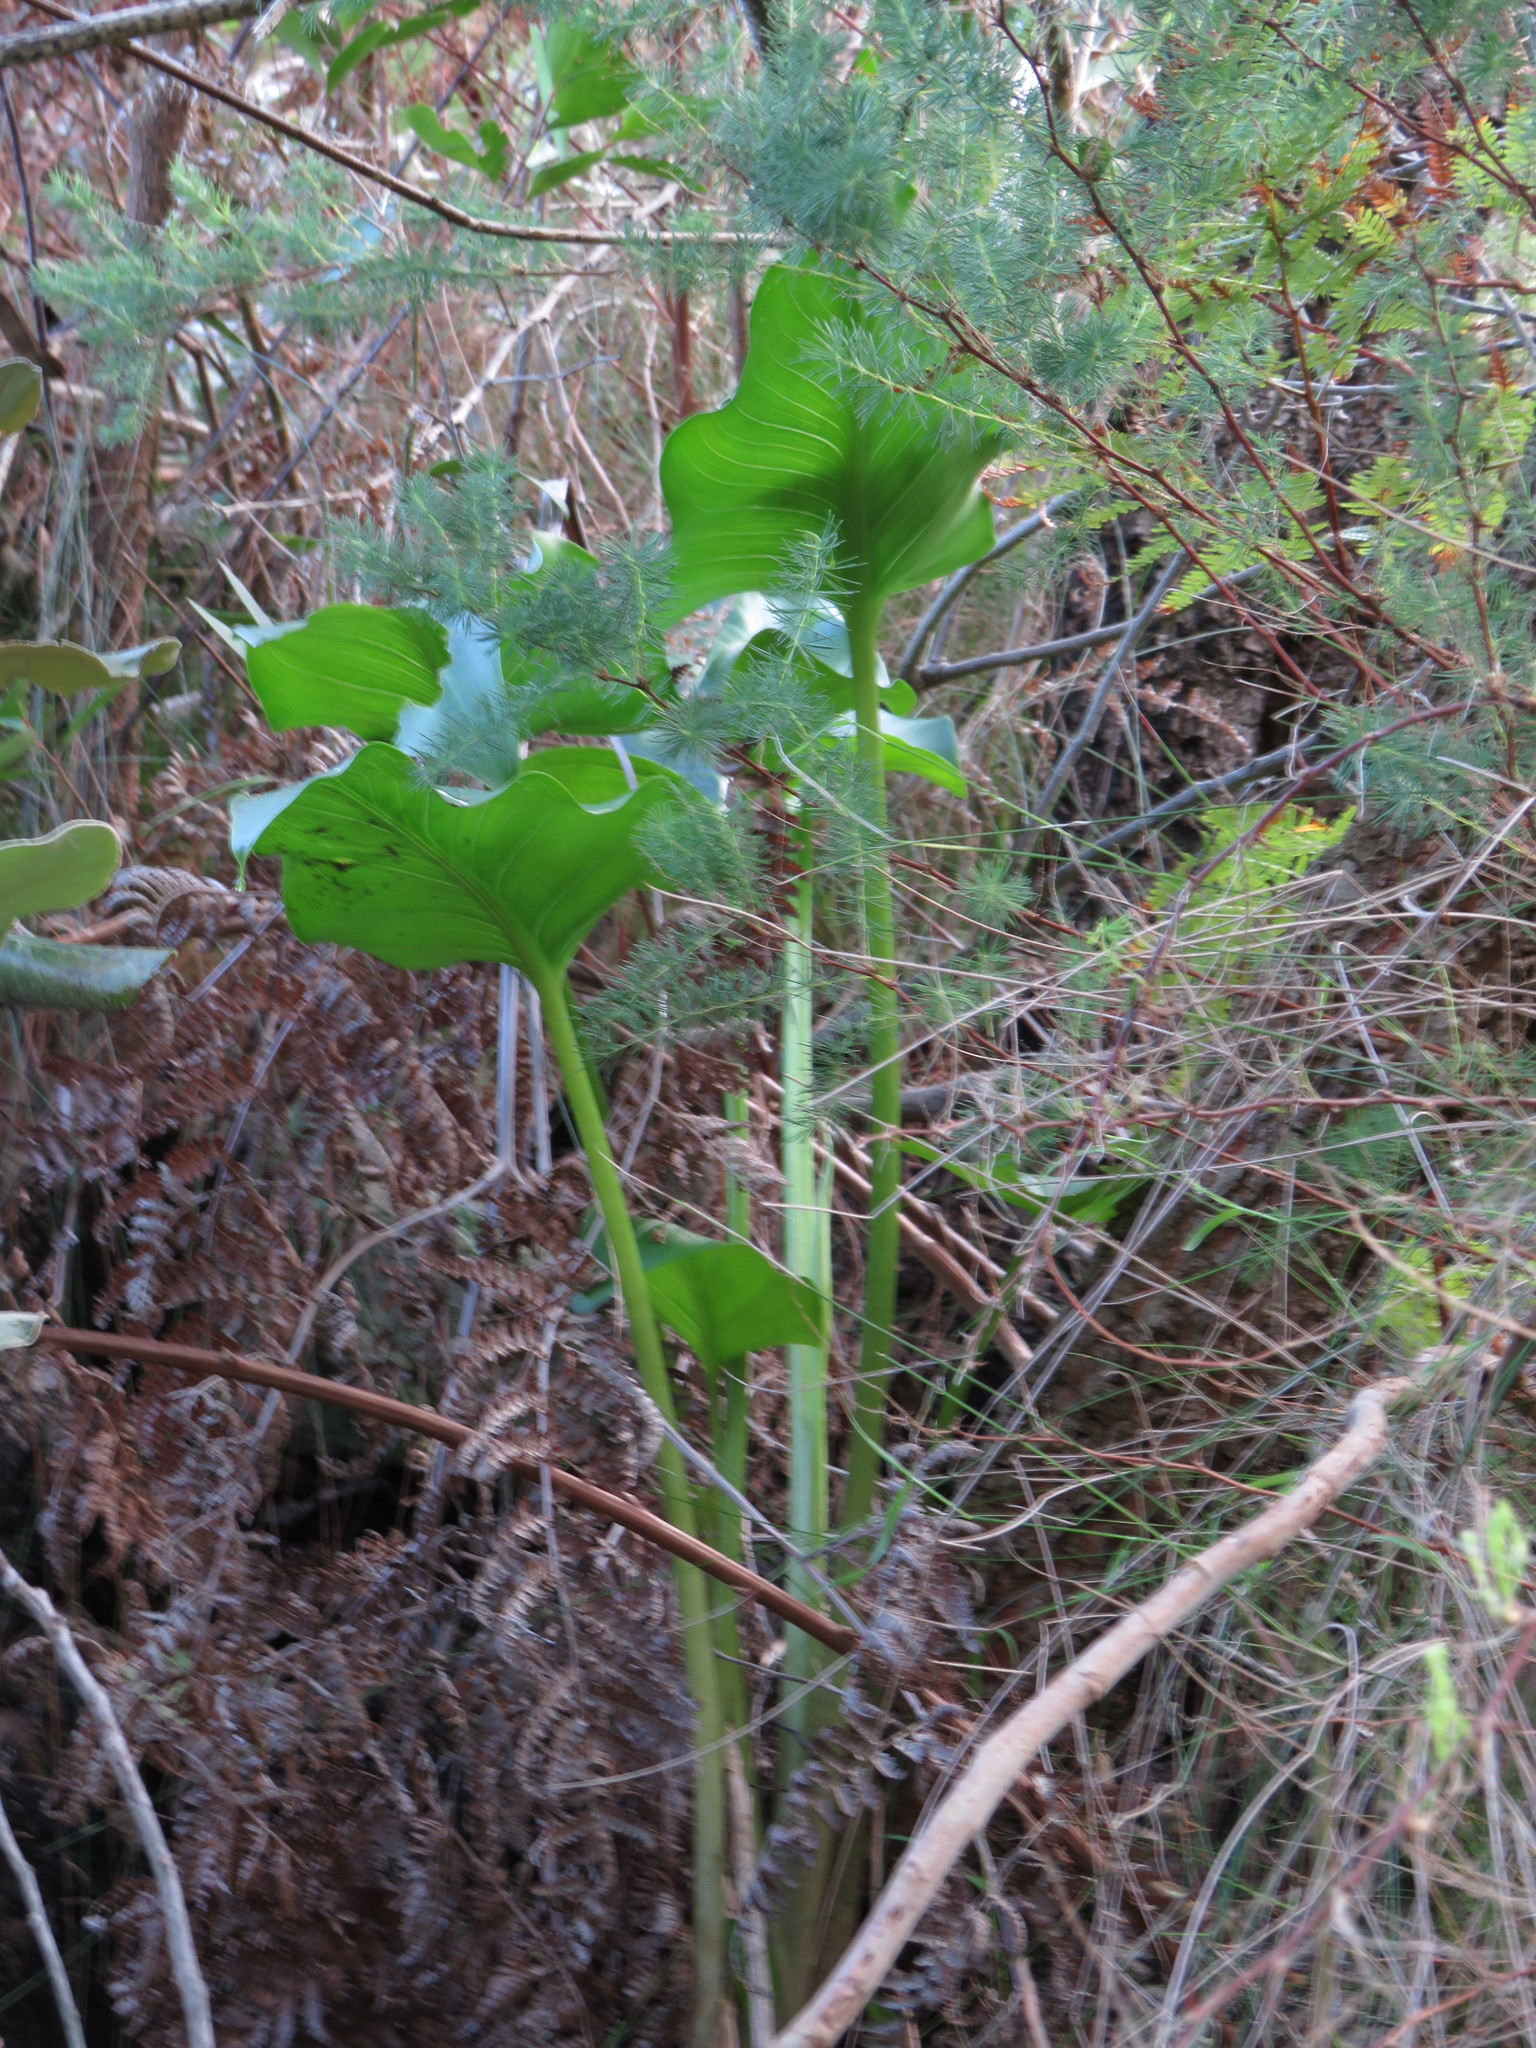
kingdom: Plantae
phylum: Tracheophyta
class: Liliopsida
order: Alismatales
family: Araceae
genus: Zantedeschia
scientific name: Zantedeschia aethiopica
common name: Altar-lily
